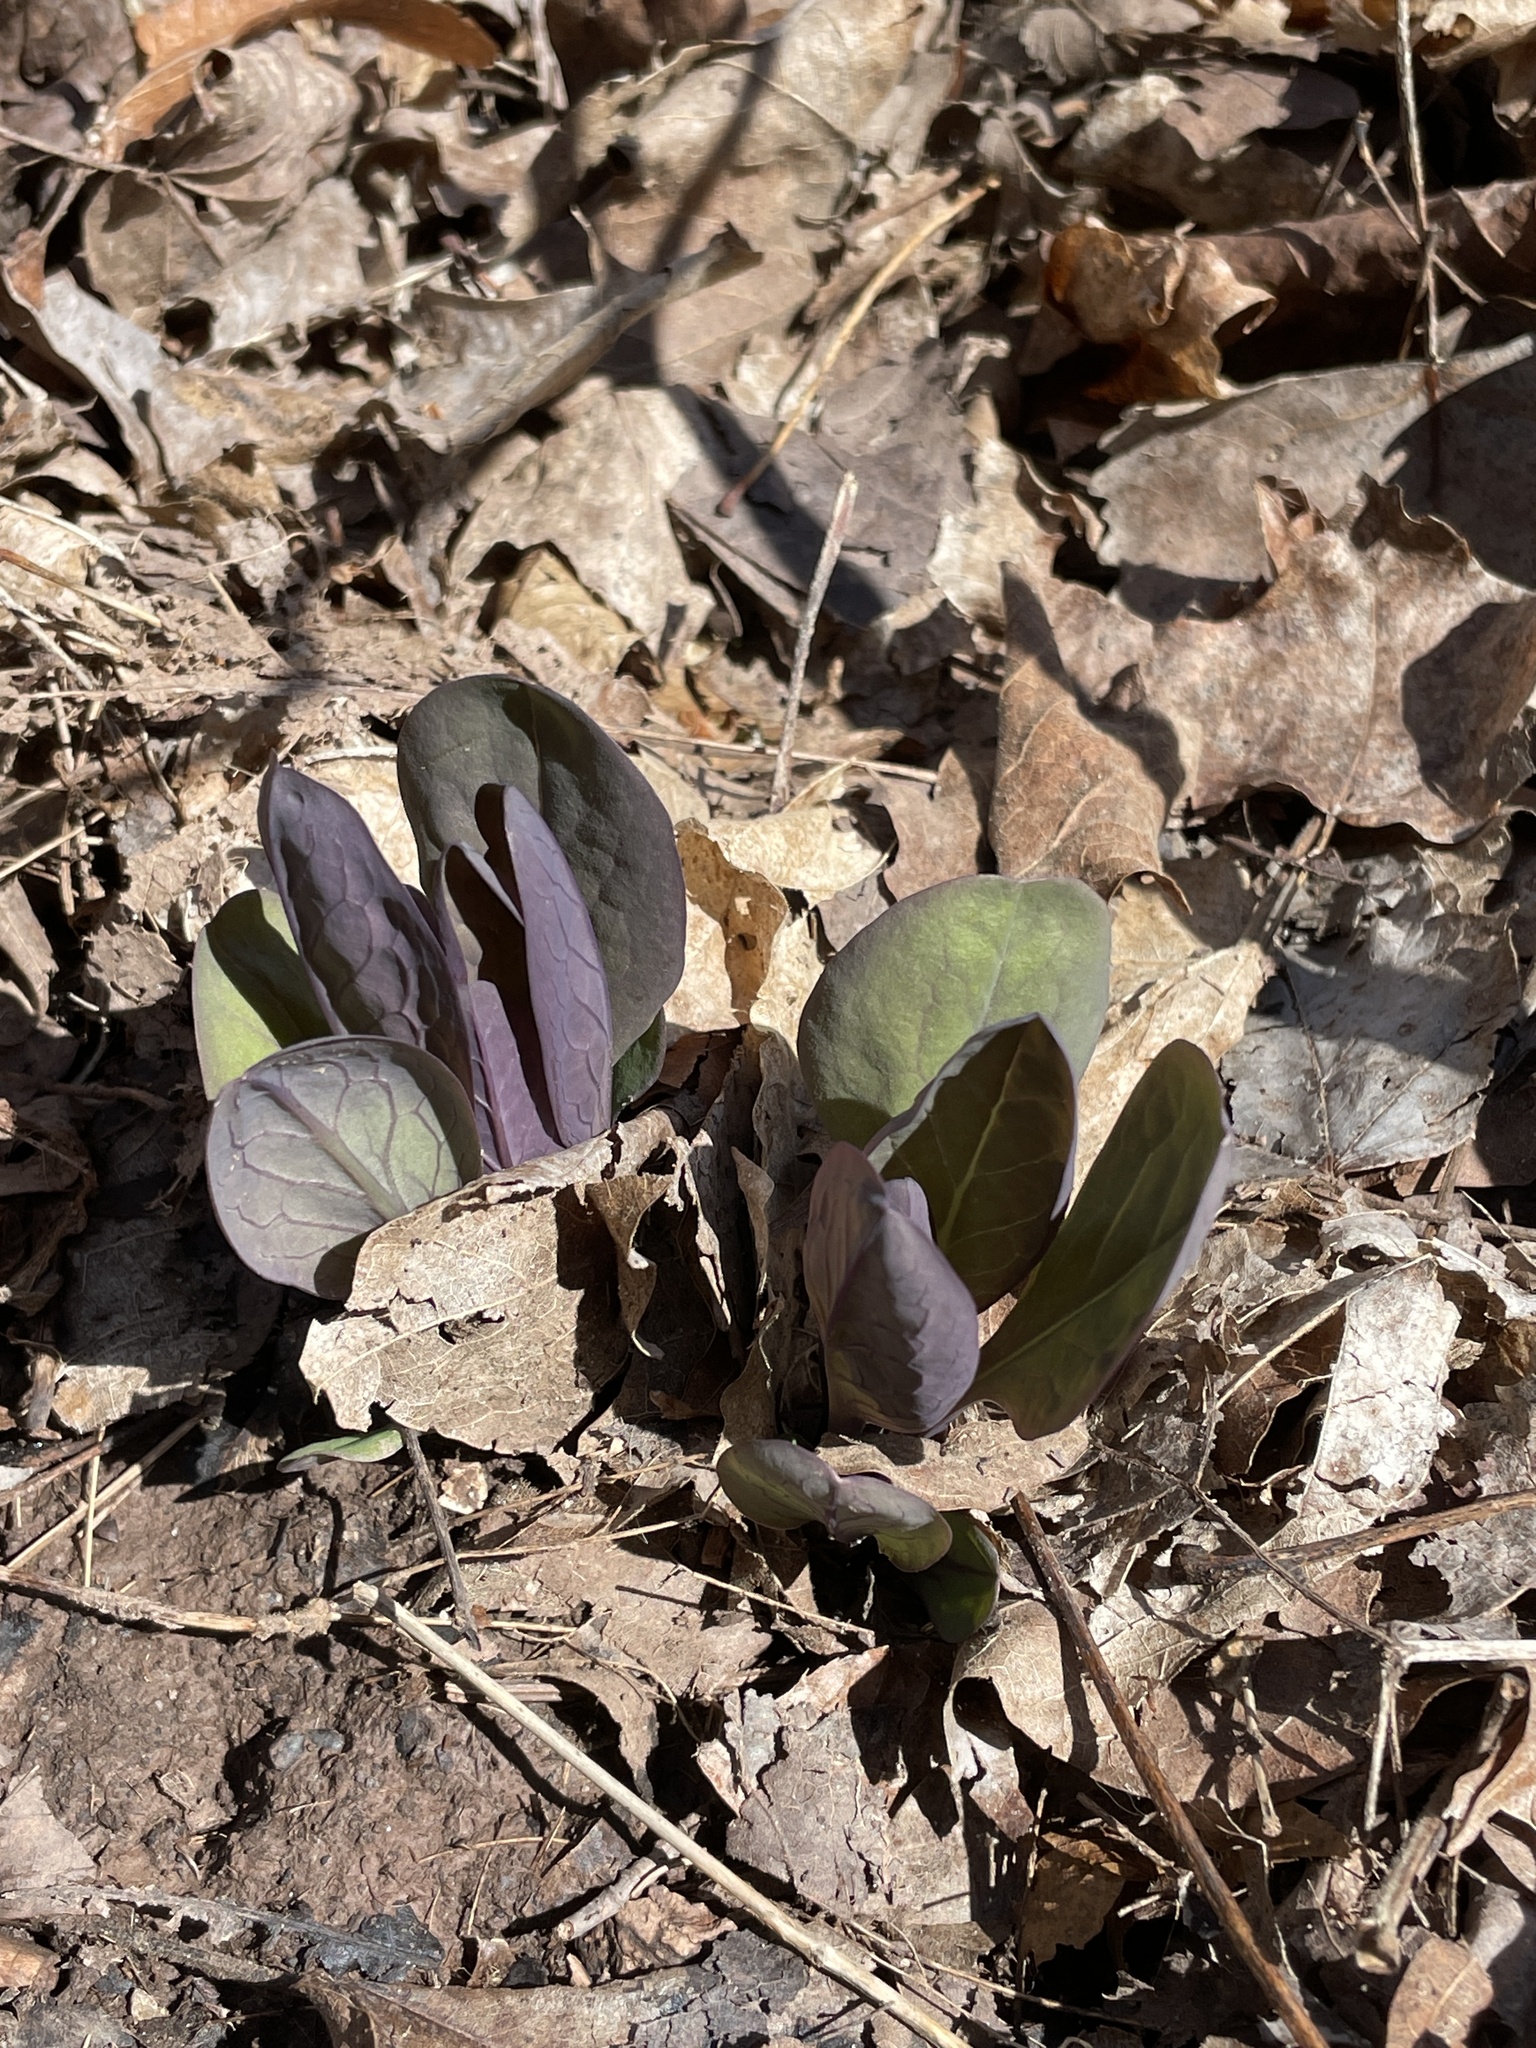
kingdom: Plantae
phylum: Tracheophyta
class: Magnoliopsida
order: Boraginales
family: Boraginaceae
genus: Mertensia
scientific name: Mertensia virginica
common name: Virginia bluebells
